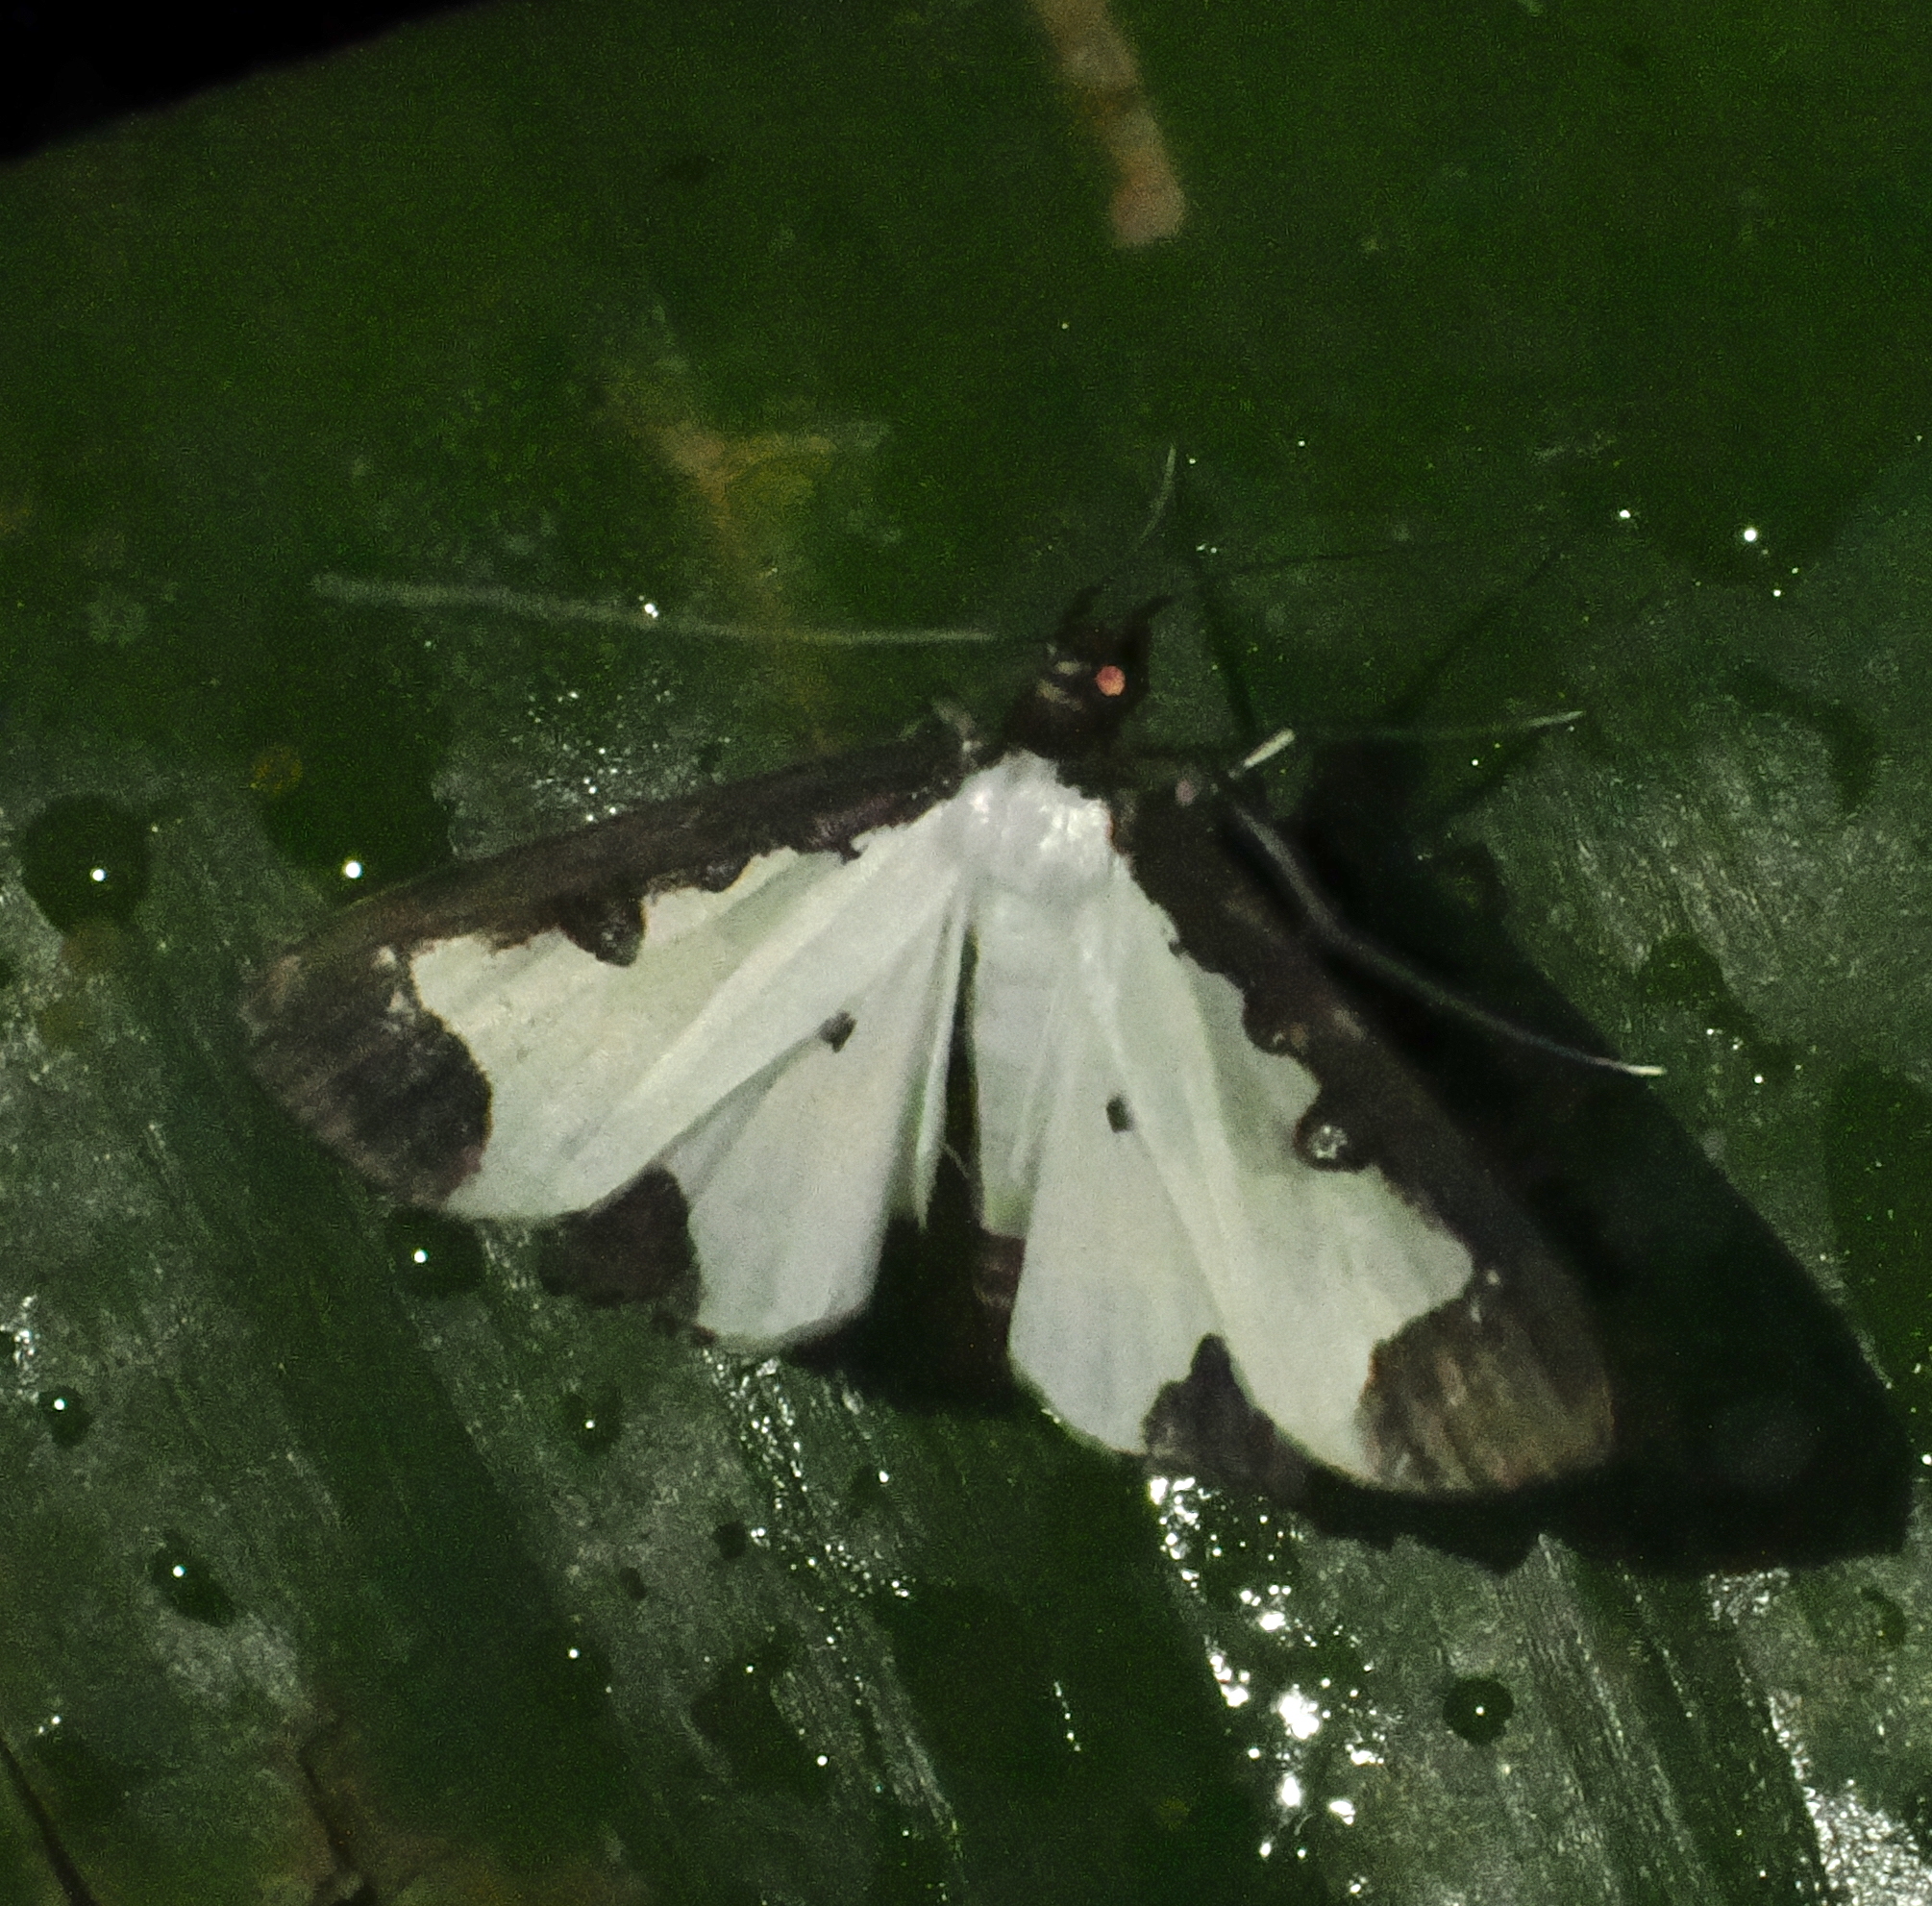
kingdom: Animalia
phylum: Arthropoda
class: Insecta
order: Lepidoptera
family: Crambidae
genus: Caprinia
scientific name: Caprinia periusalis
